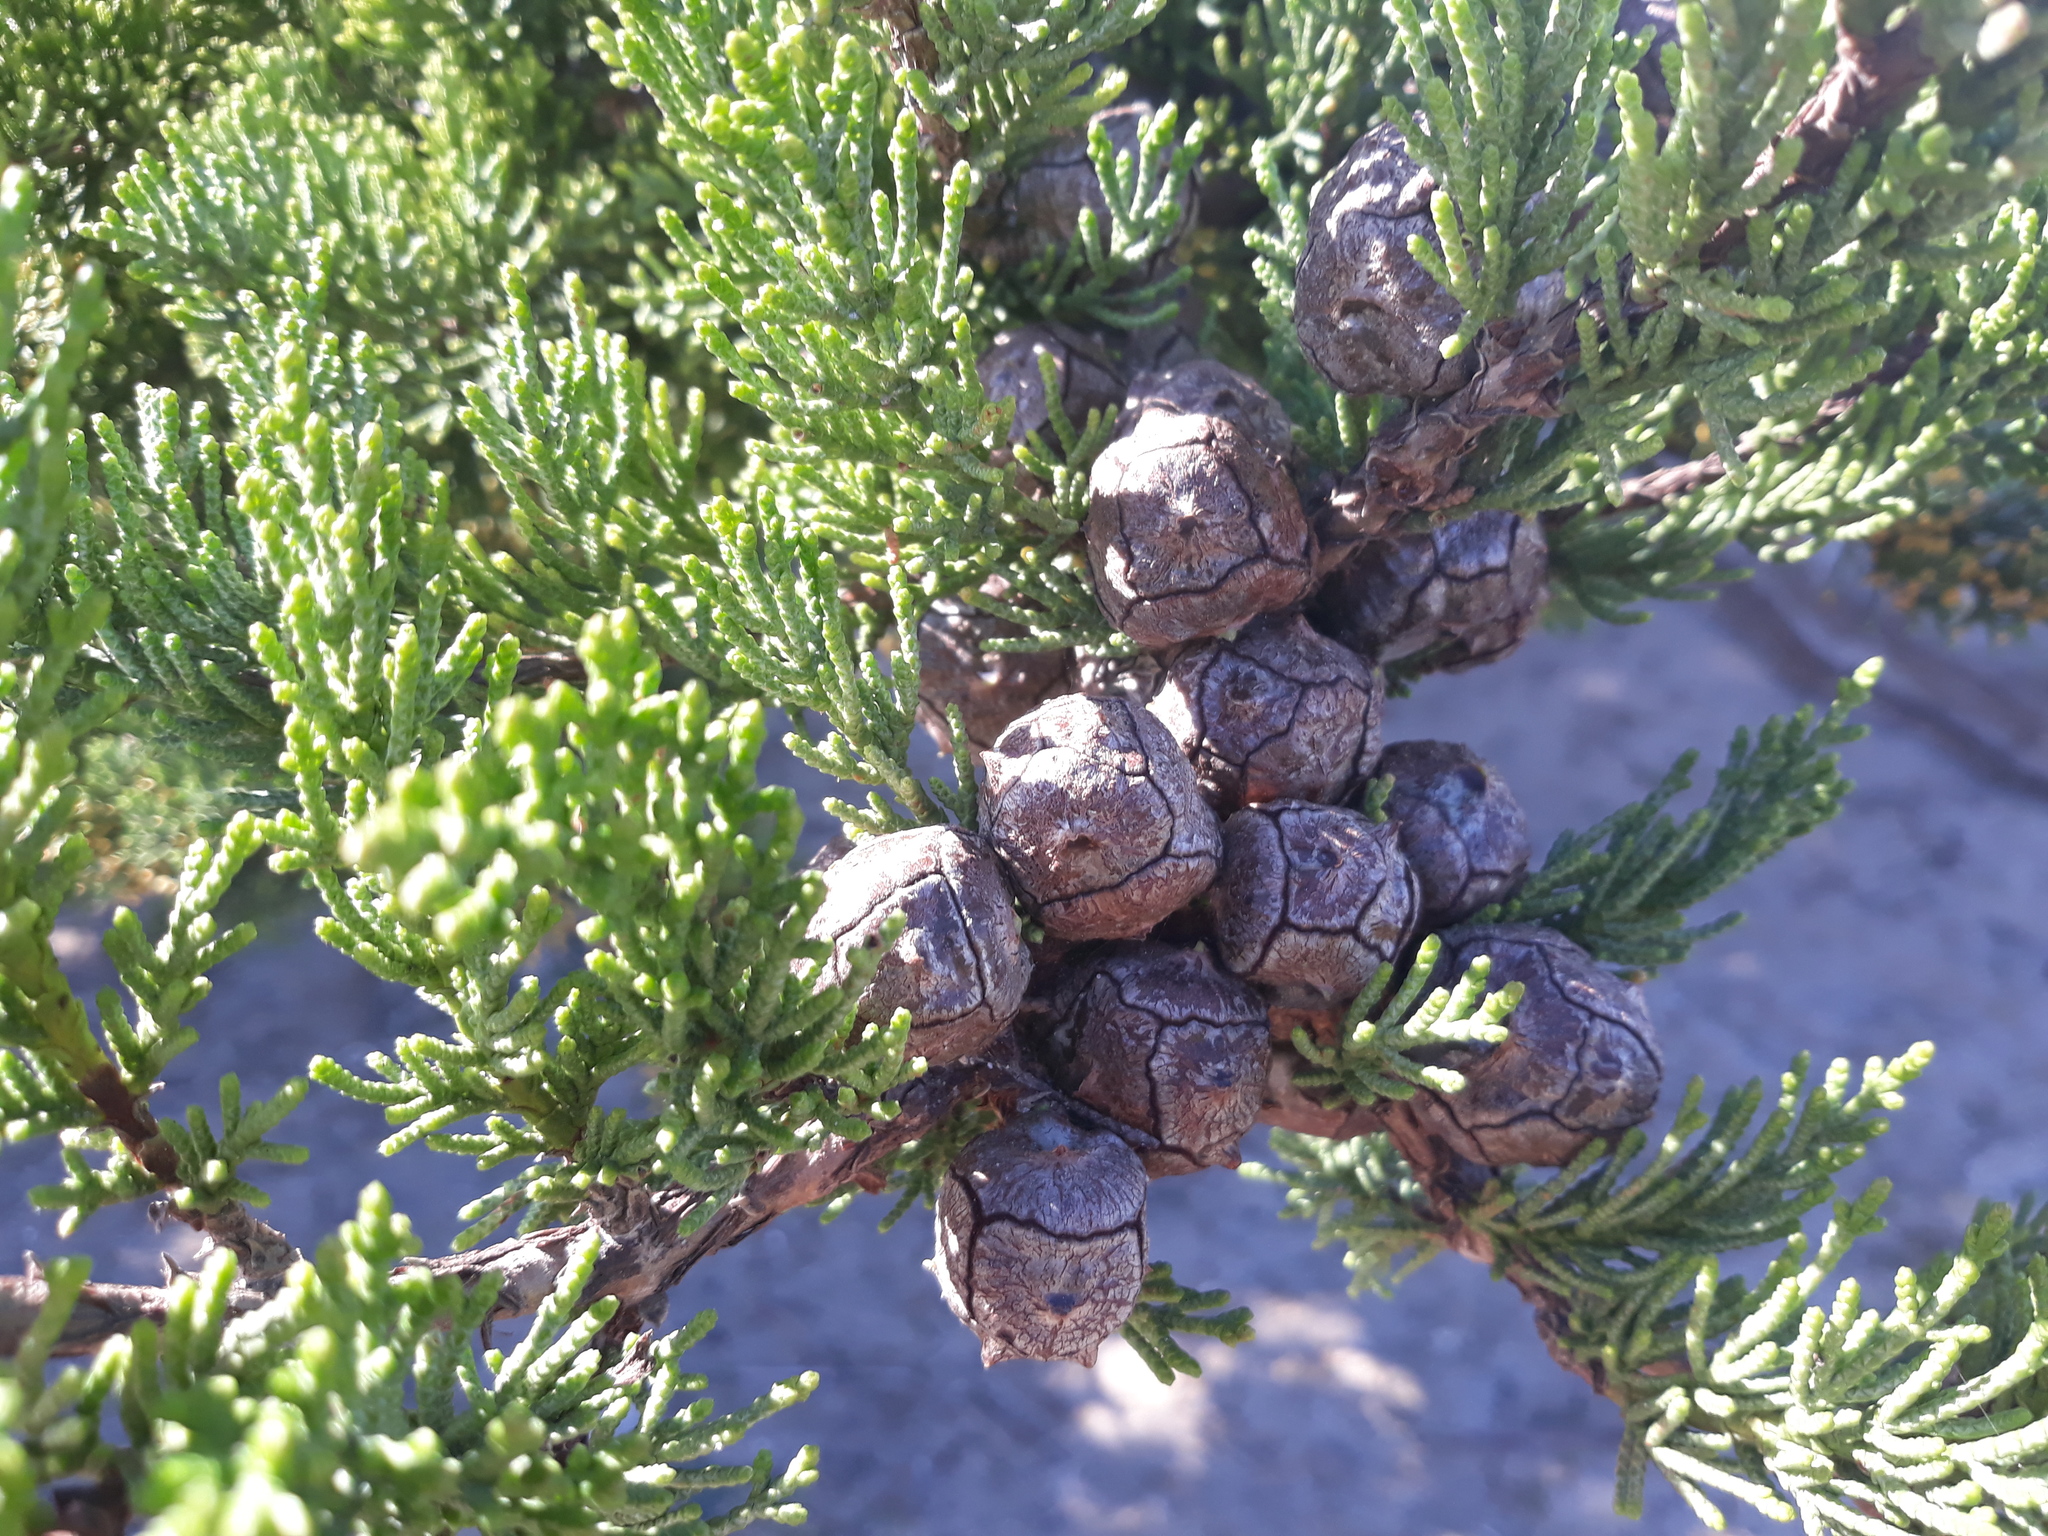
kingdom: Plantae
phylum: Tracheophyta
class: Pinopsida
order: Pinales
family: Cupressaceae
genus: Cupressus
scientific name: Cupressus macrocarpa
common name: Monterey cypress
